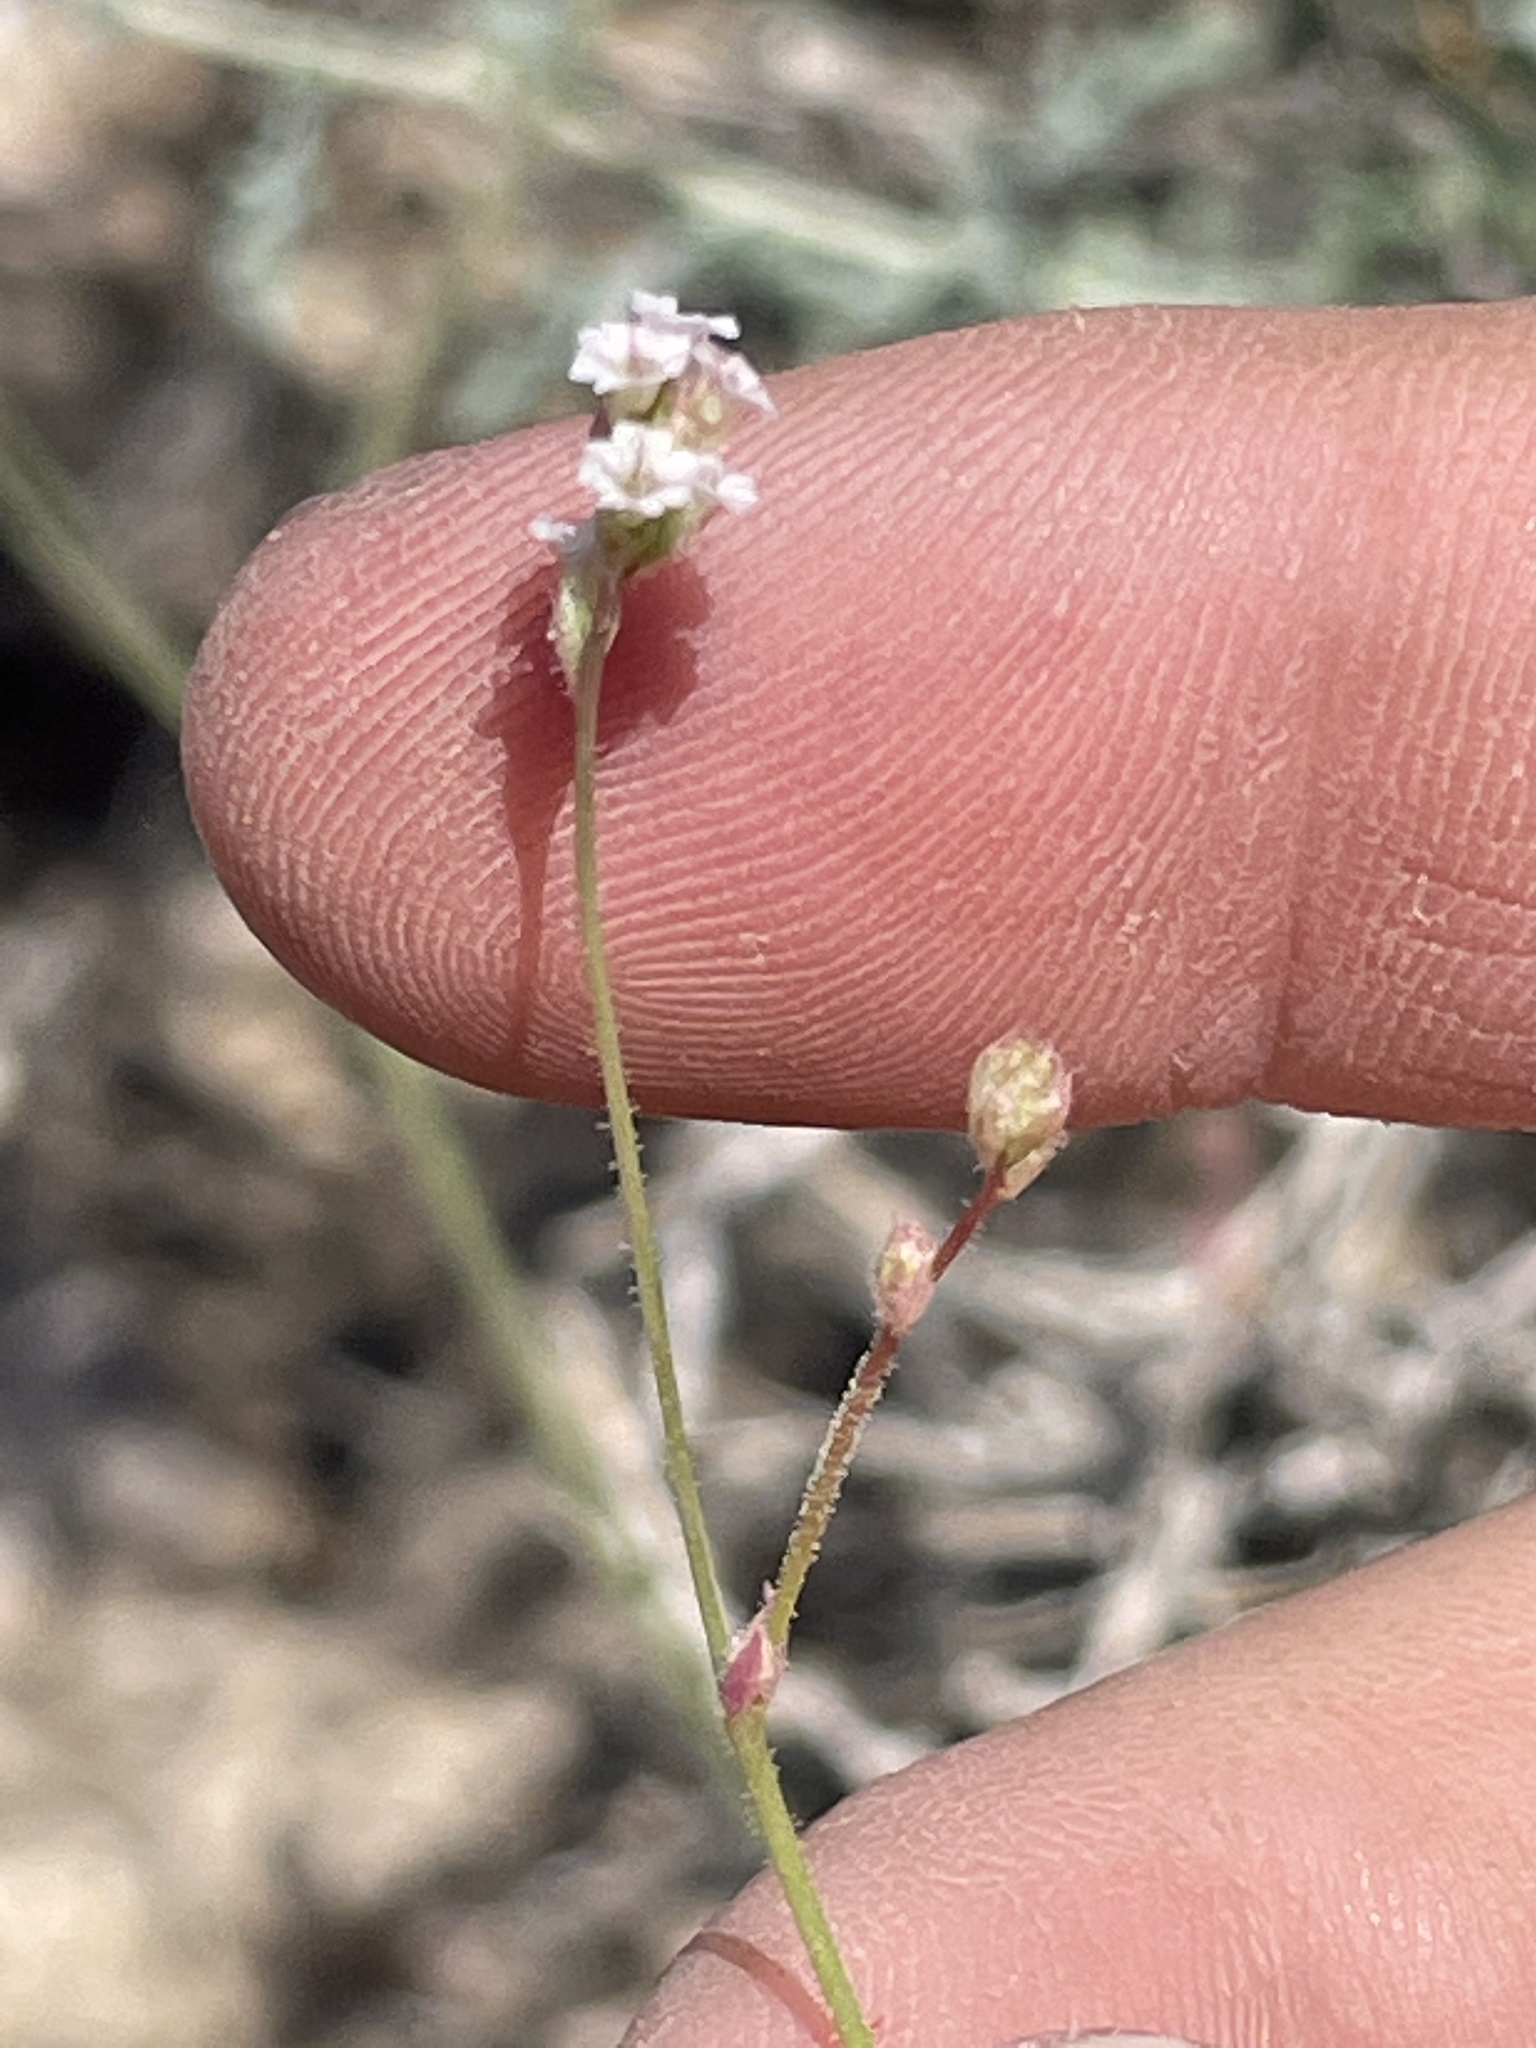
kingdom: Plantae
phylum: Tracheophyta
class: Magnoliopsida
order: Caryophyllales
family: Nyctaginaceae
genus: Boerhavia
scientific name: Boerhavia wrightii
